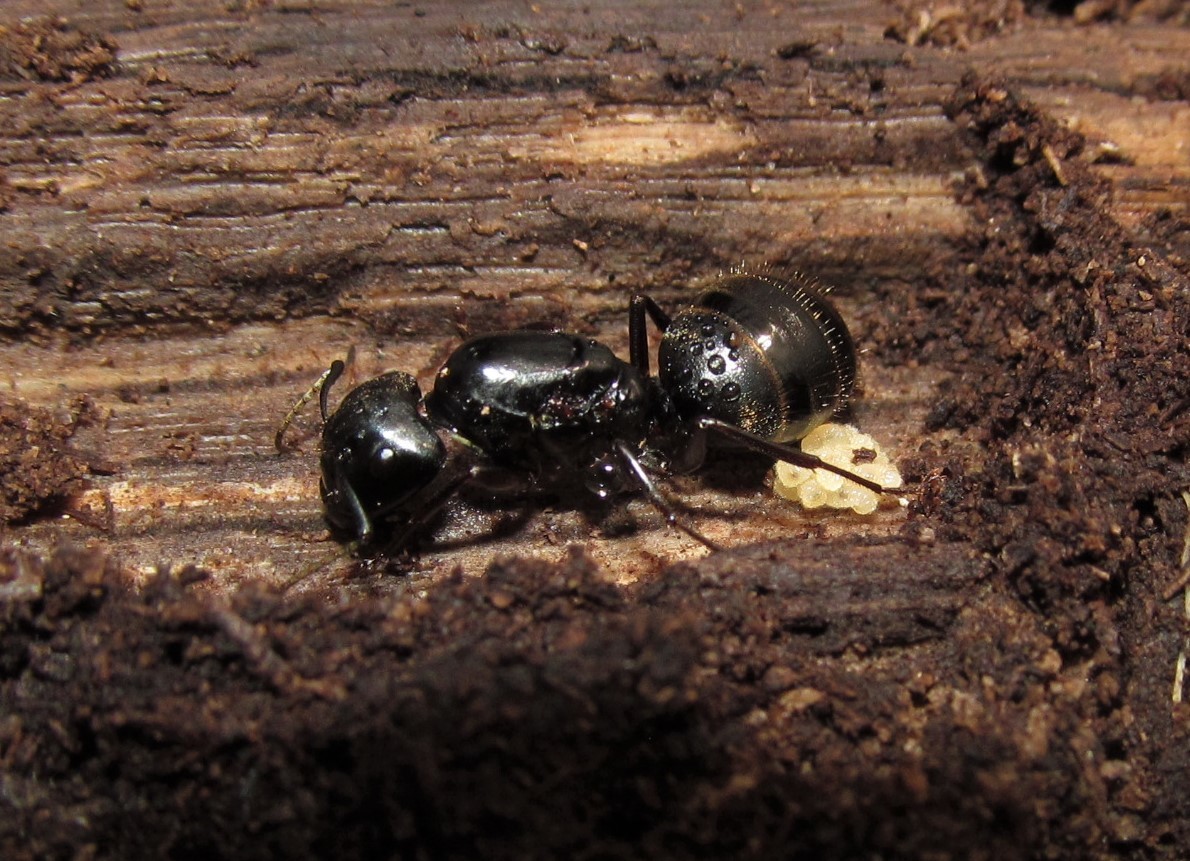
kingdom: Animalia
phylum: Arthropoda
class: Insecta
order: Hymenoptera
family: Formicidae
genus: Camponotus
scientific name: Camponotus pennsylvanicus
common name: Black carpenter ant
